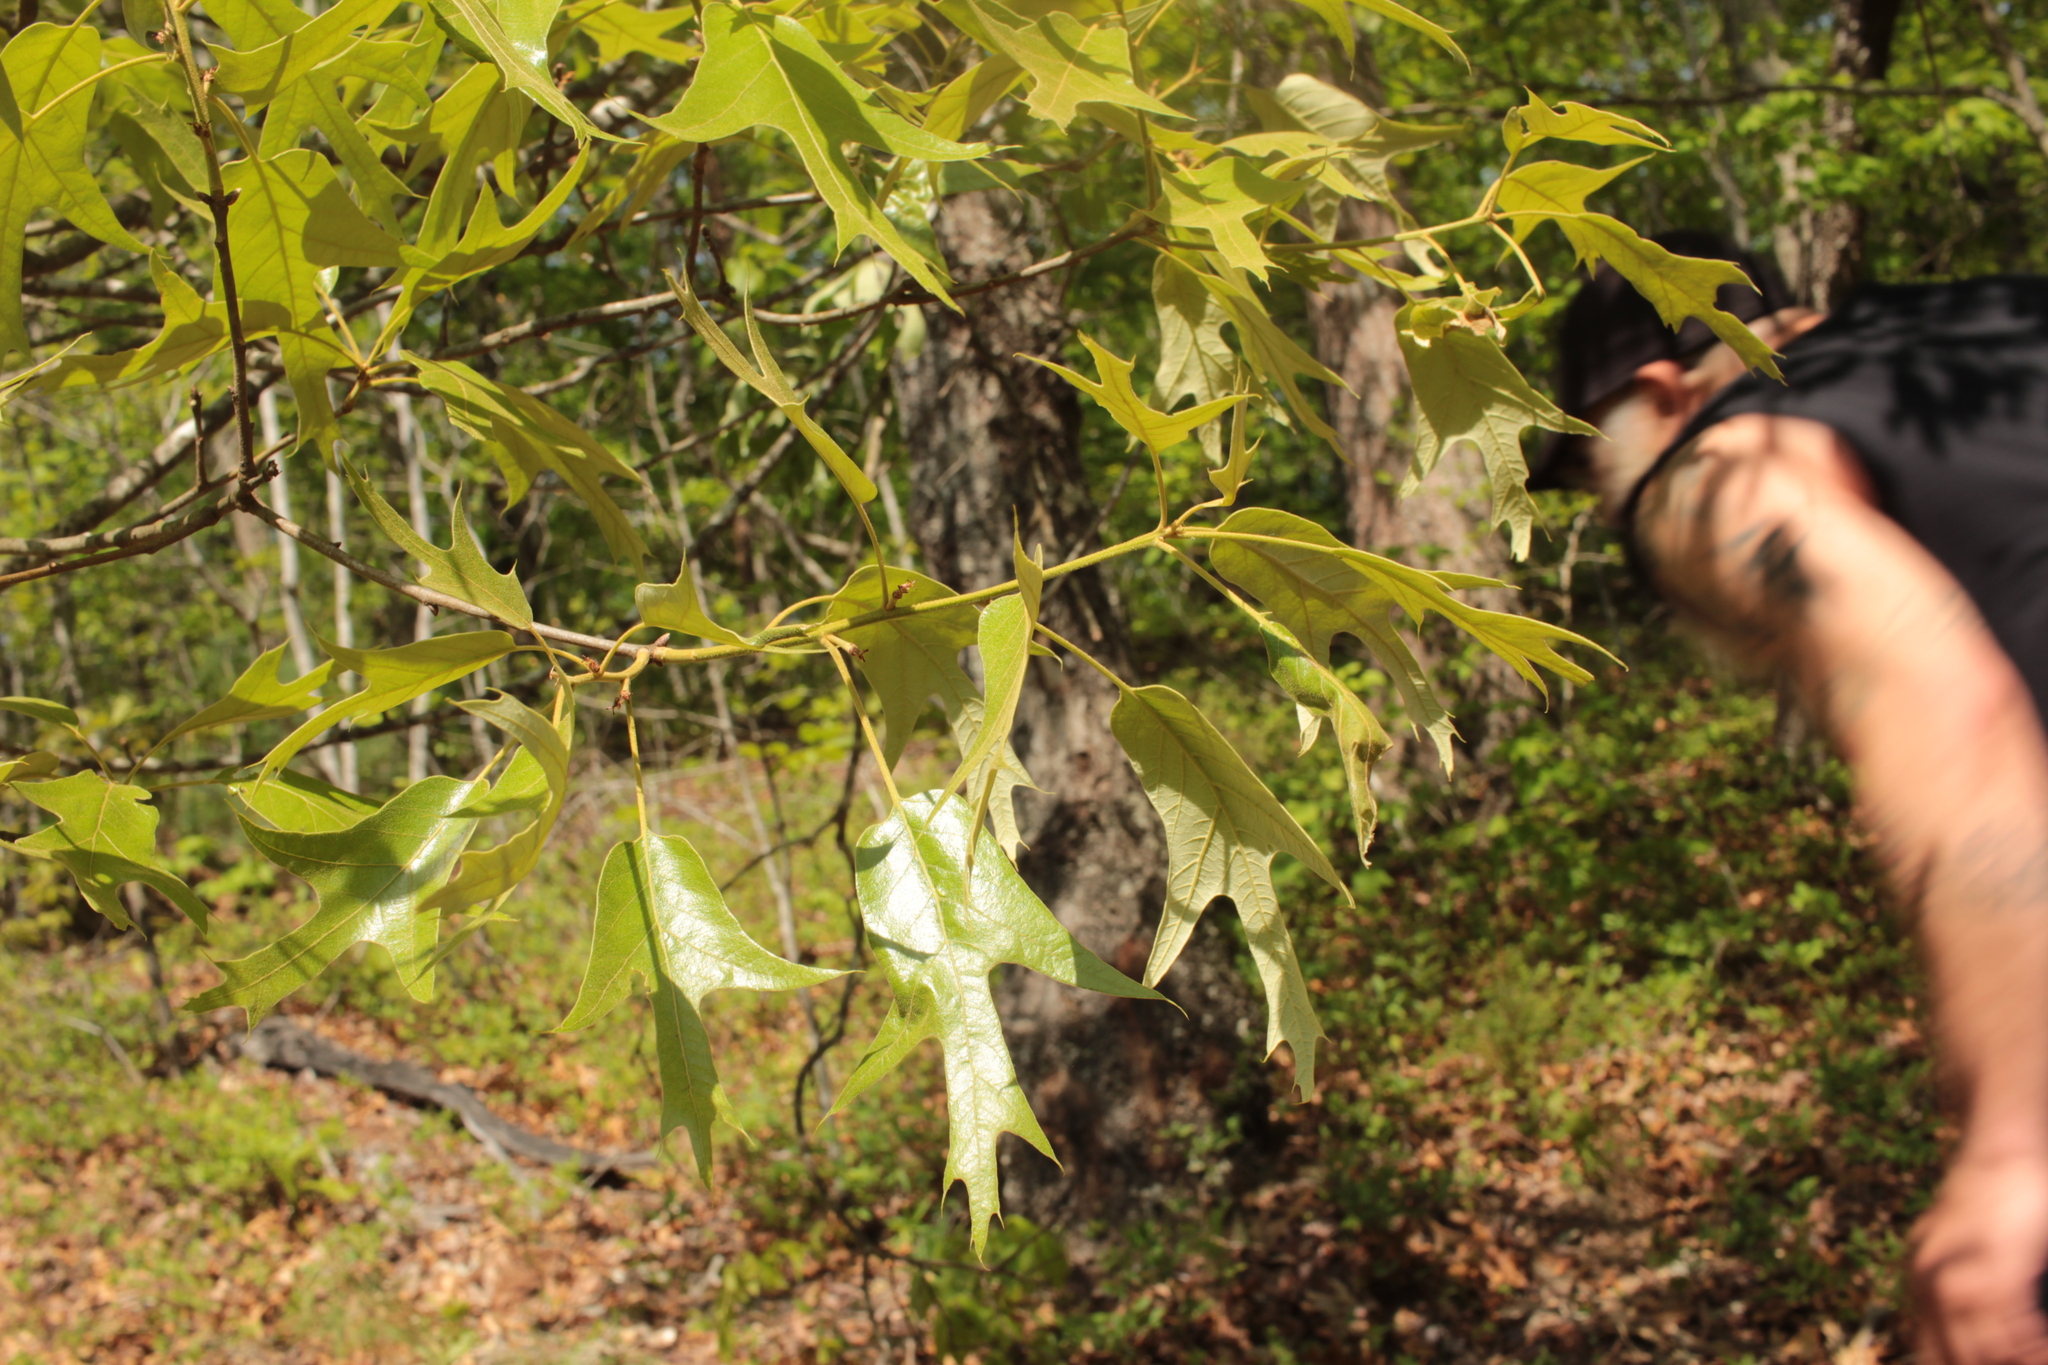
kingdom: Plantae
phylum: Tracheophyta
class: Magnoliopsida
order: Fagales
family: Fagaceae
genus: Quercus
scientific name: Quercus falcata
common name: Southern red oak
